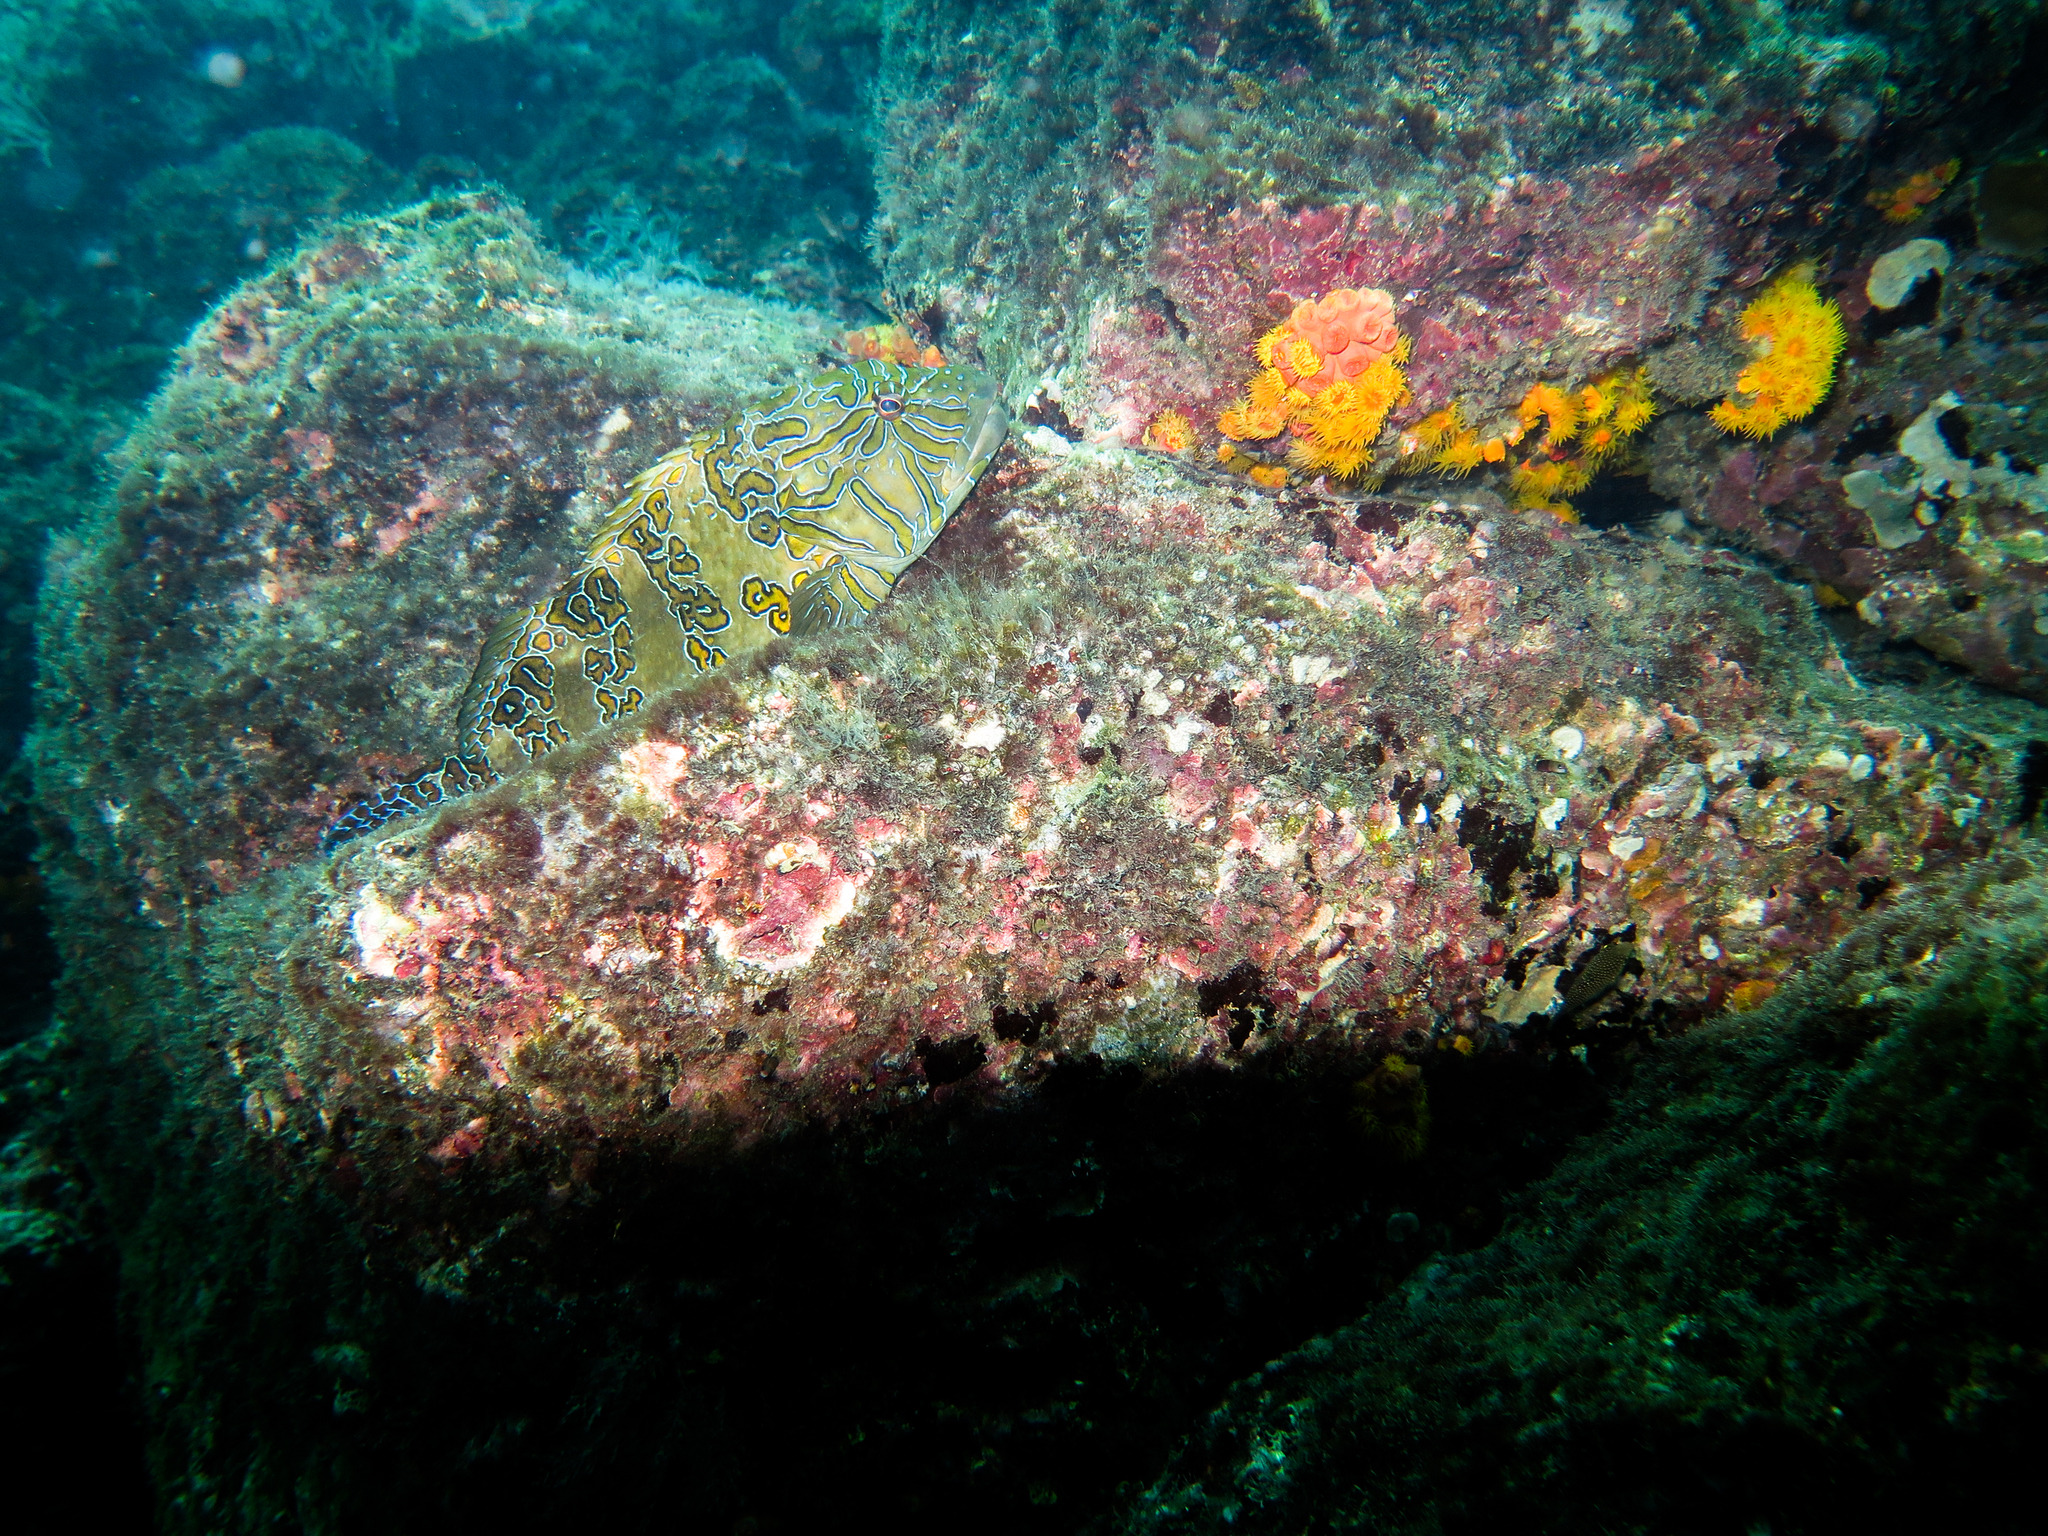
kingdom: Animalia
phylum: Chordata
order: Perciformes
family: Cirrhitidae
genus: Cirrhitus
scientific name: Cirrhitus rivulatus
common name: Giant hawkfish
